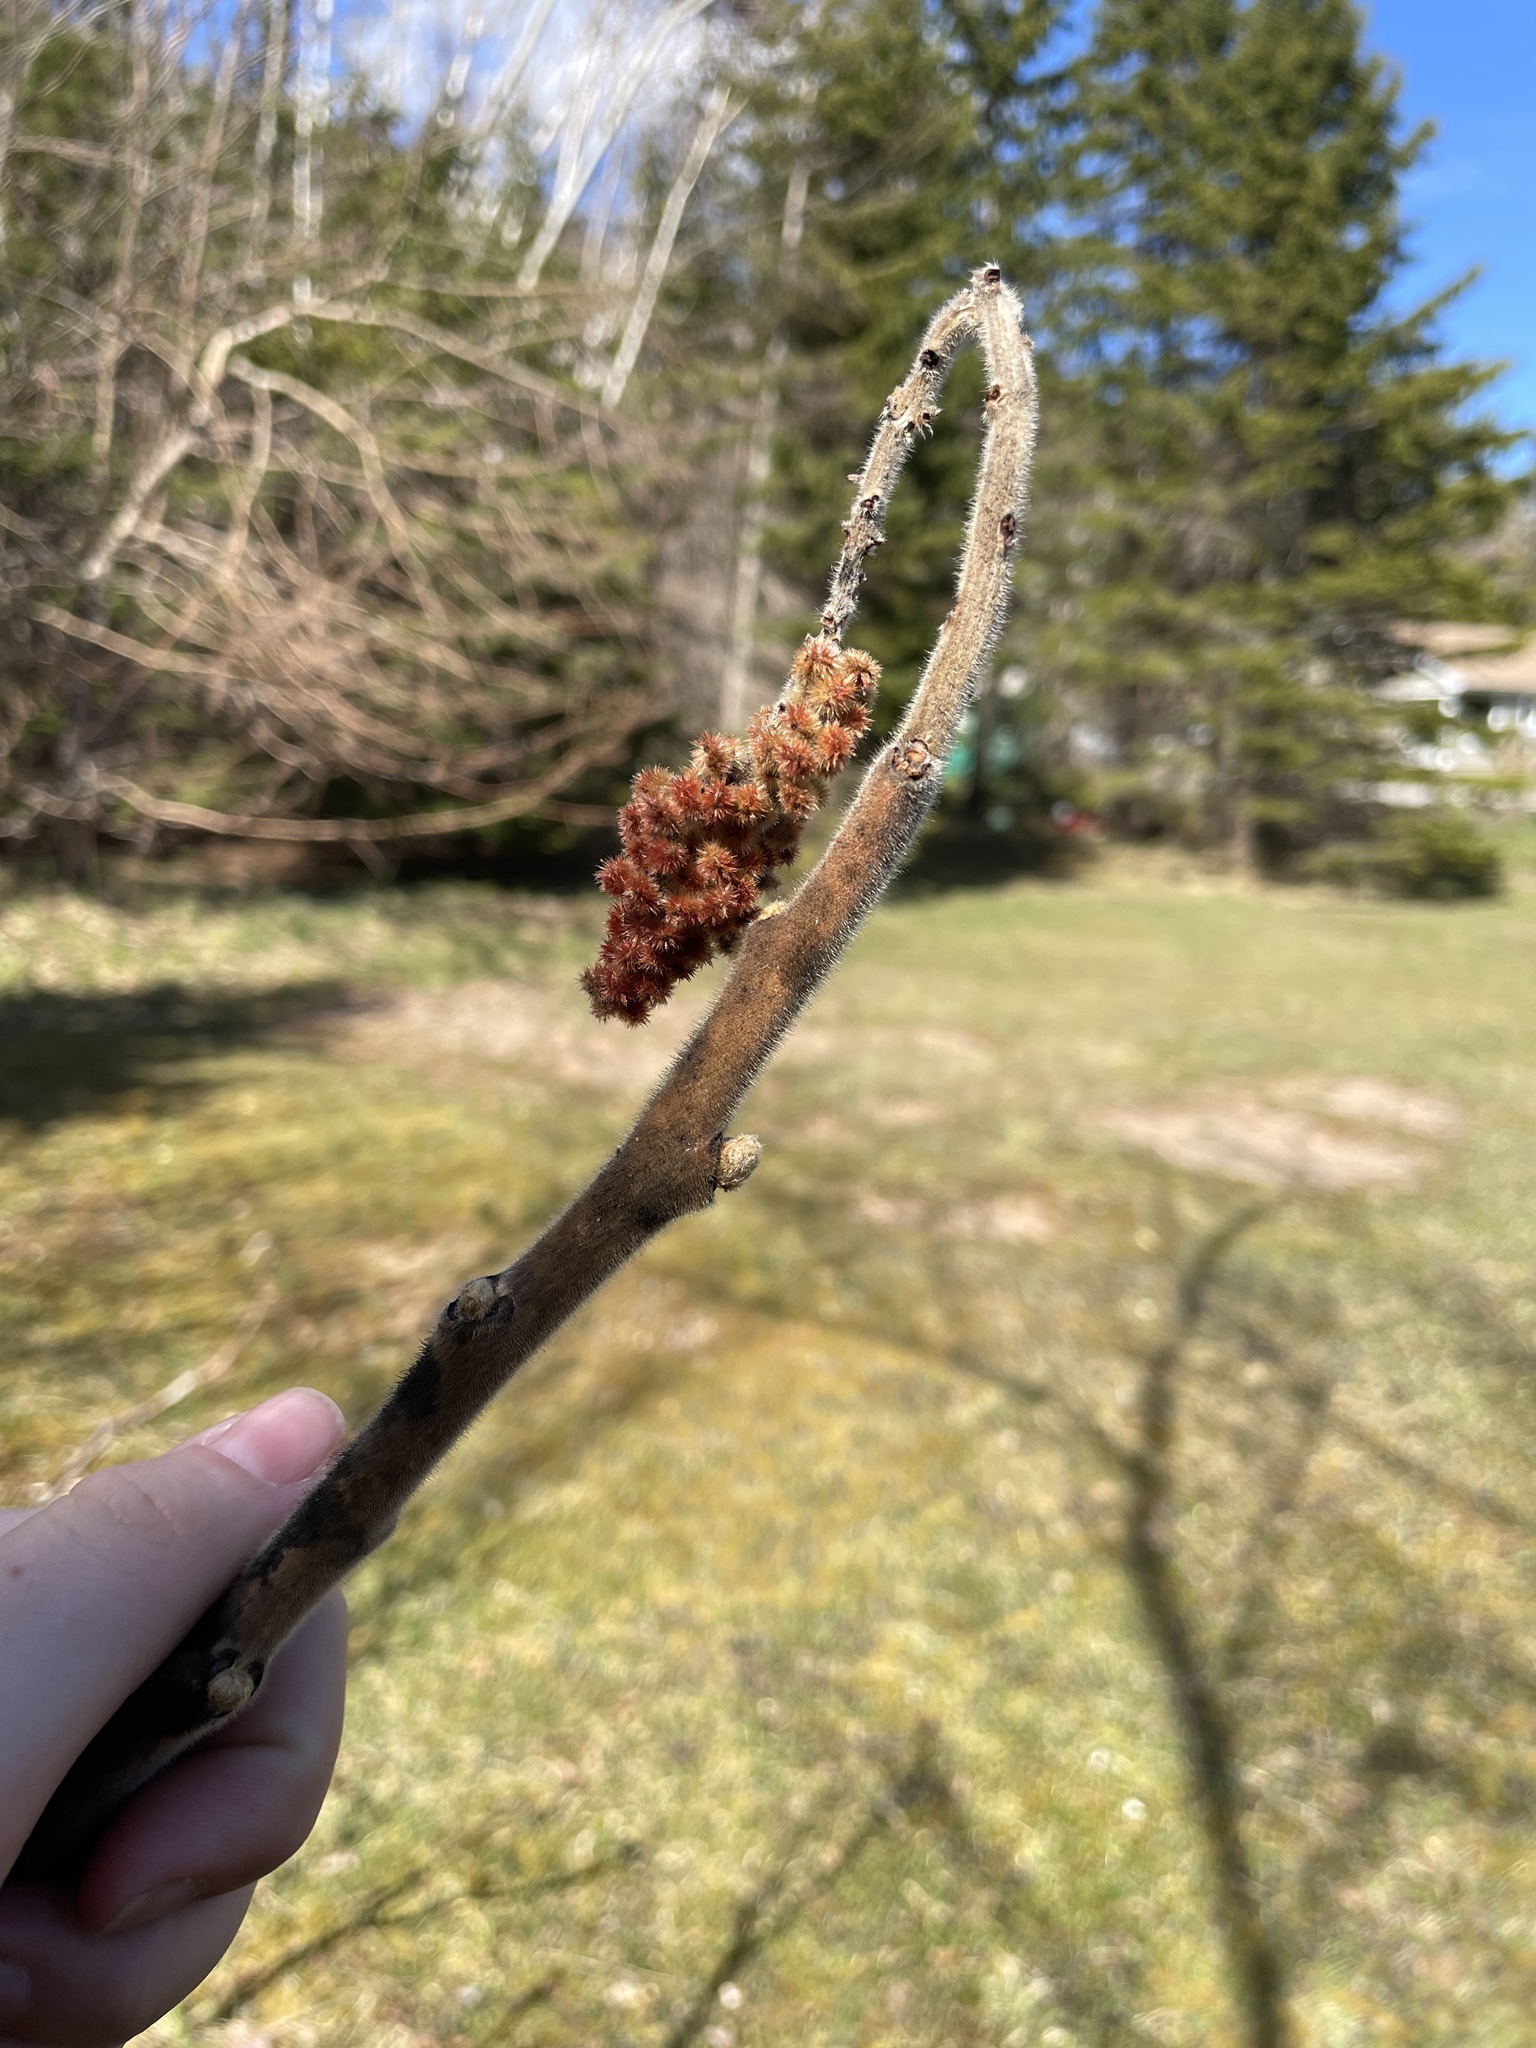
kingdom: Plantae
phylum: Tracheophyta
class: Magnoliopsida
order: Sapindales
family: Anacardiaceae
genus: Rhus
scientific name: Rhus typhina
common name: Staghorn sumac
